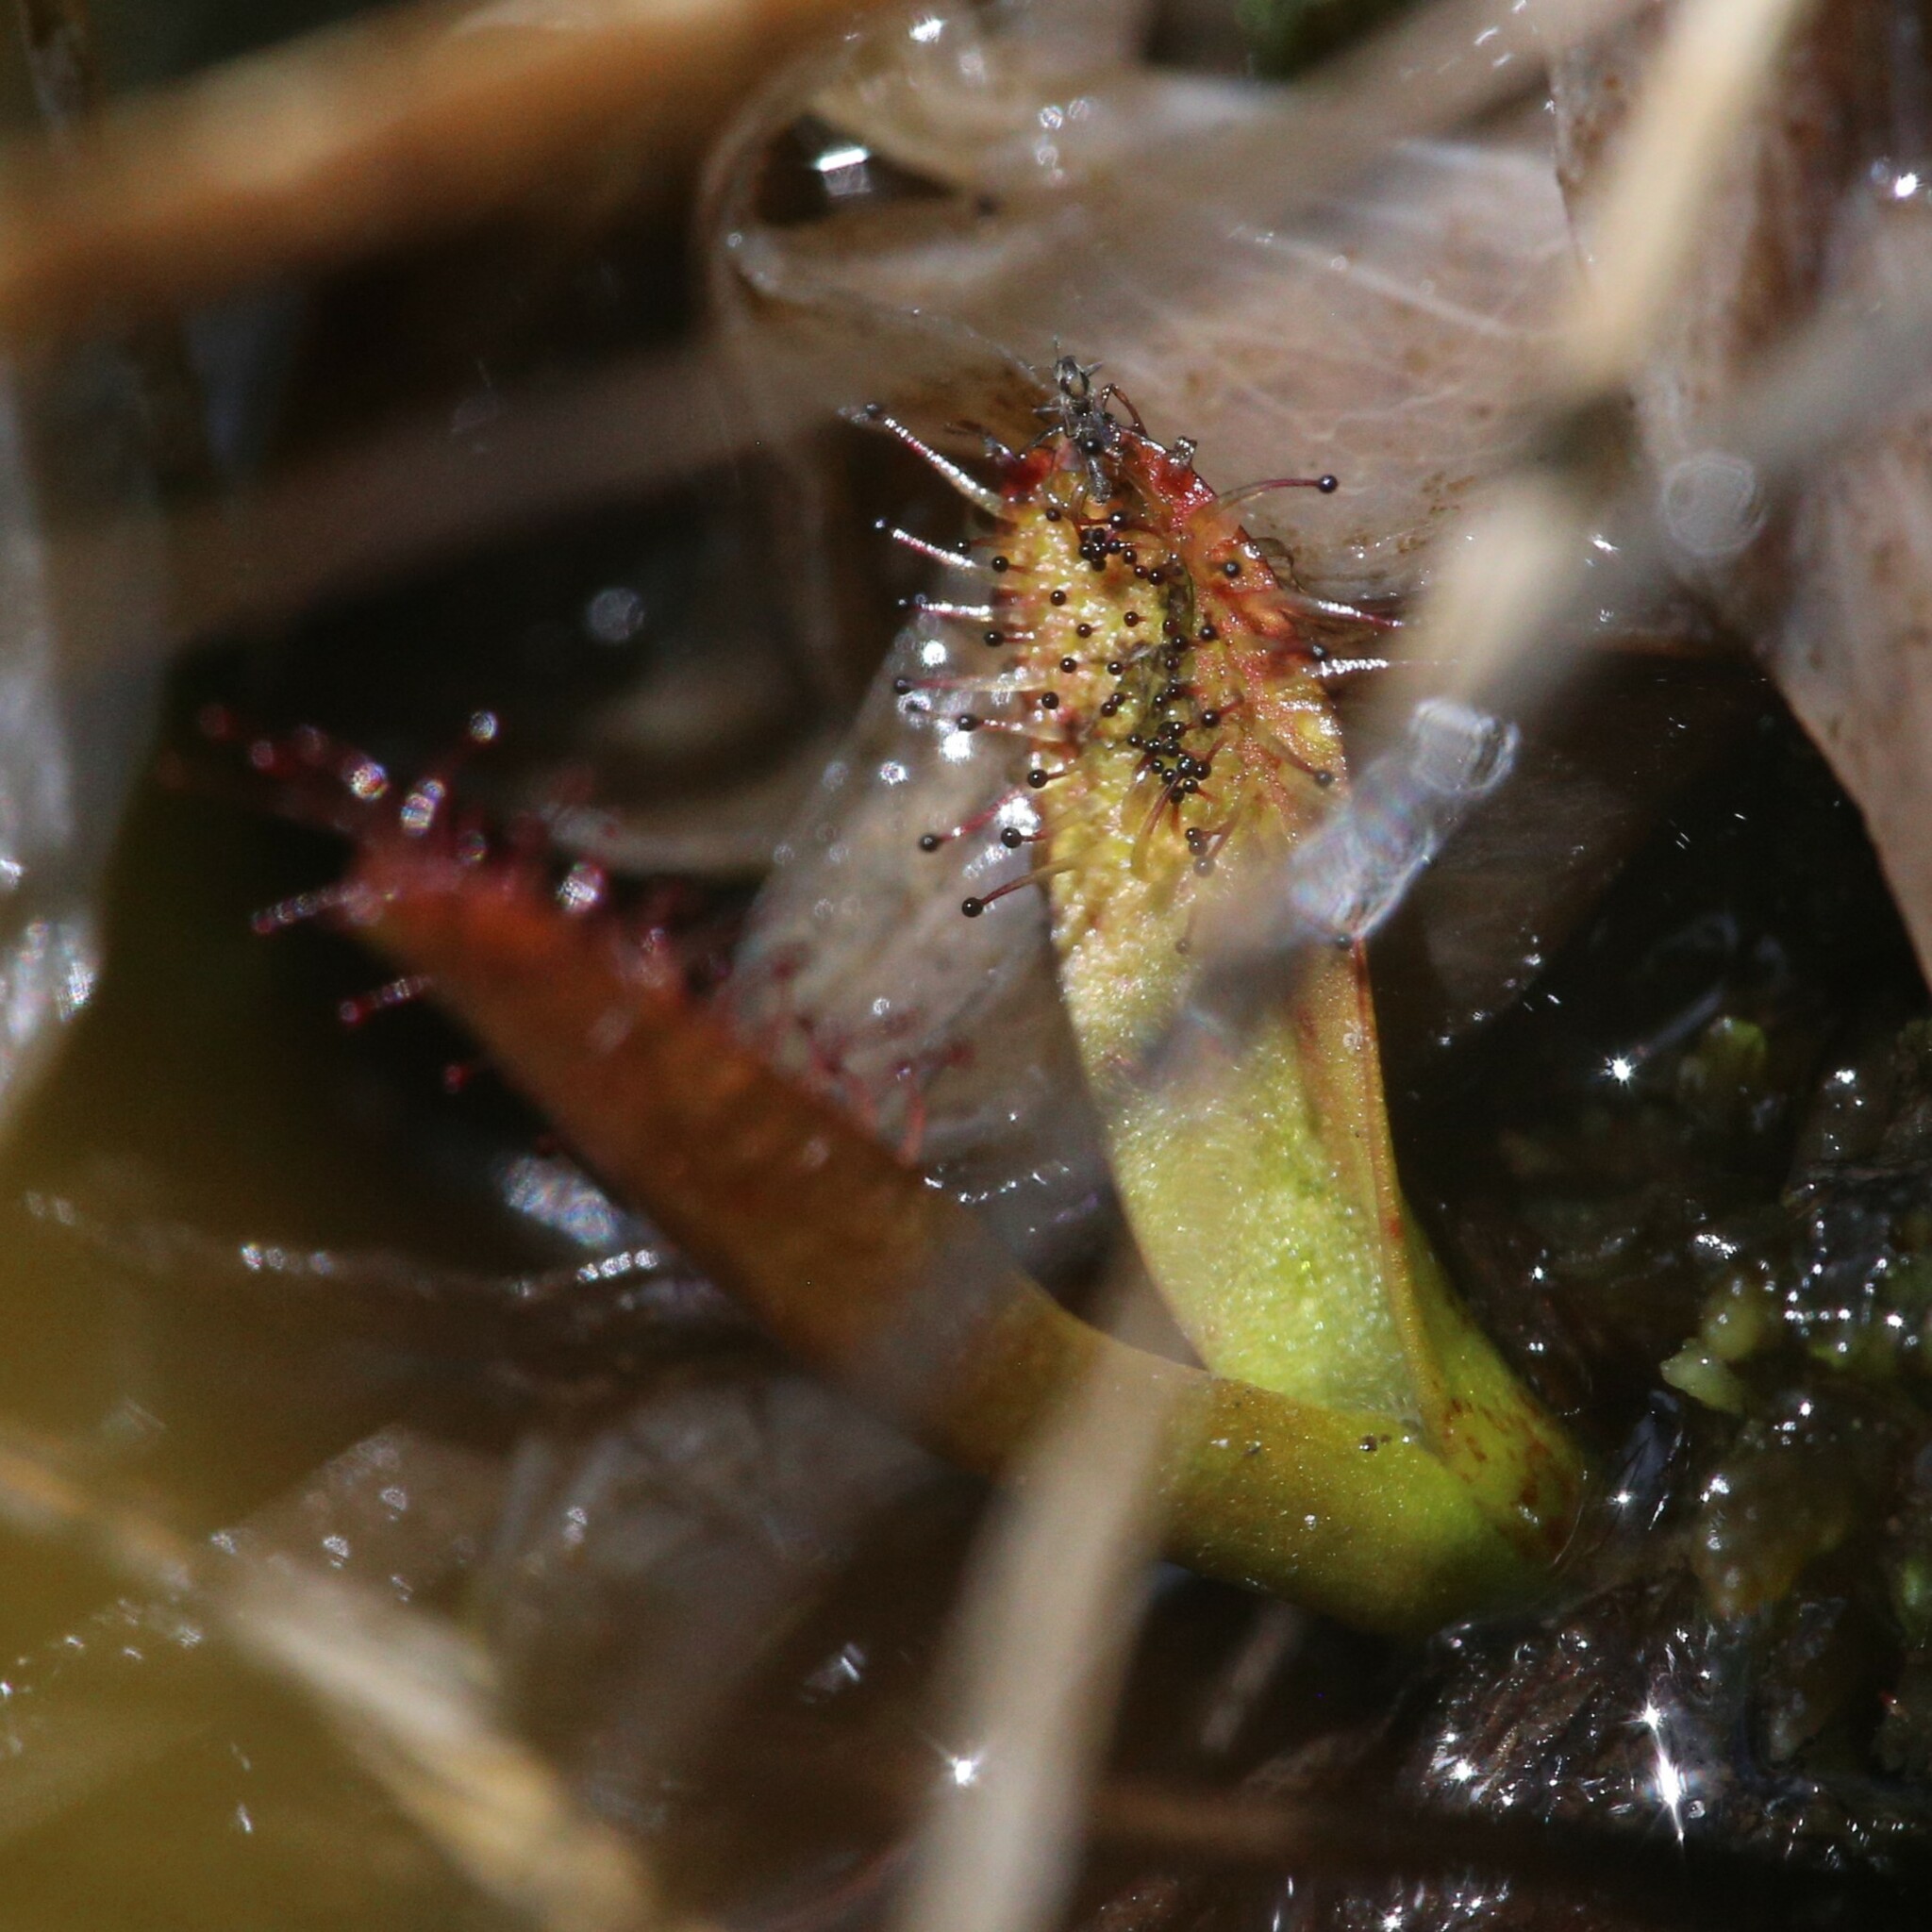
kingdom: Plantae
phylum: Tracheophyta
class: Magnoliopsida
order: Caryophyllales
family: Droseraceae
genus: Drosera
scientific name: Drosera arcturi
